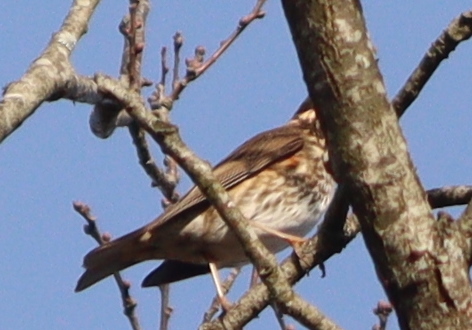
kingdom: Animalia
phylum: Chordata
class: Aves
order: Passeriformes
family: Turdidae
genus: Turdus
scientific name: Turdus iliacus
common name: Redwing
